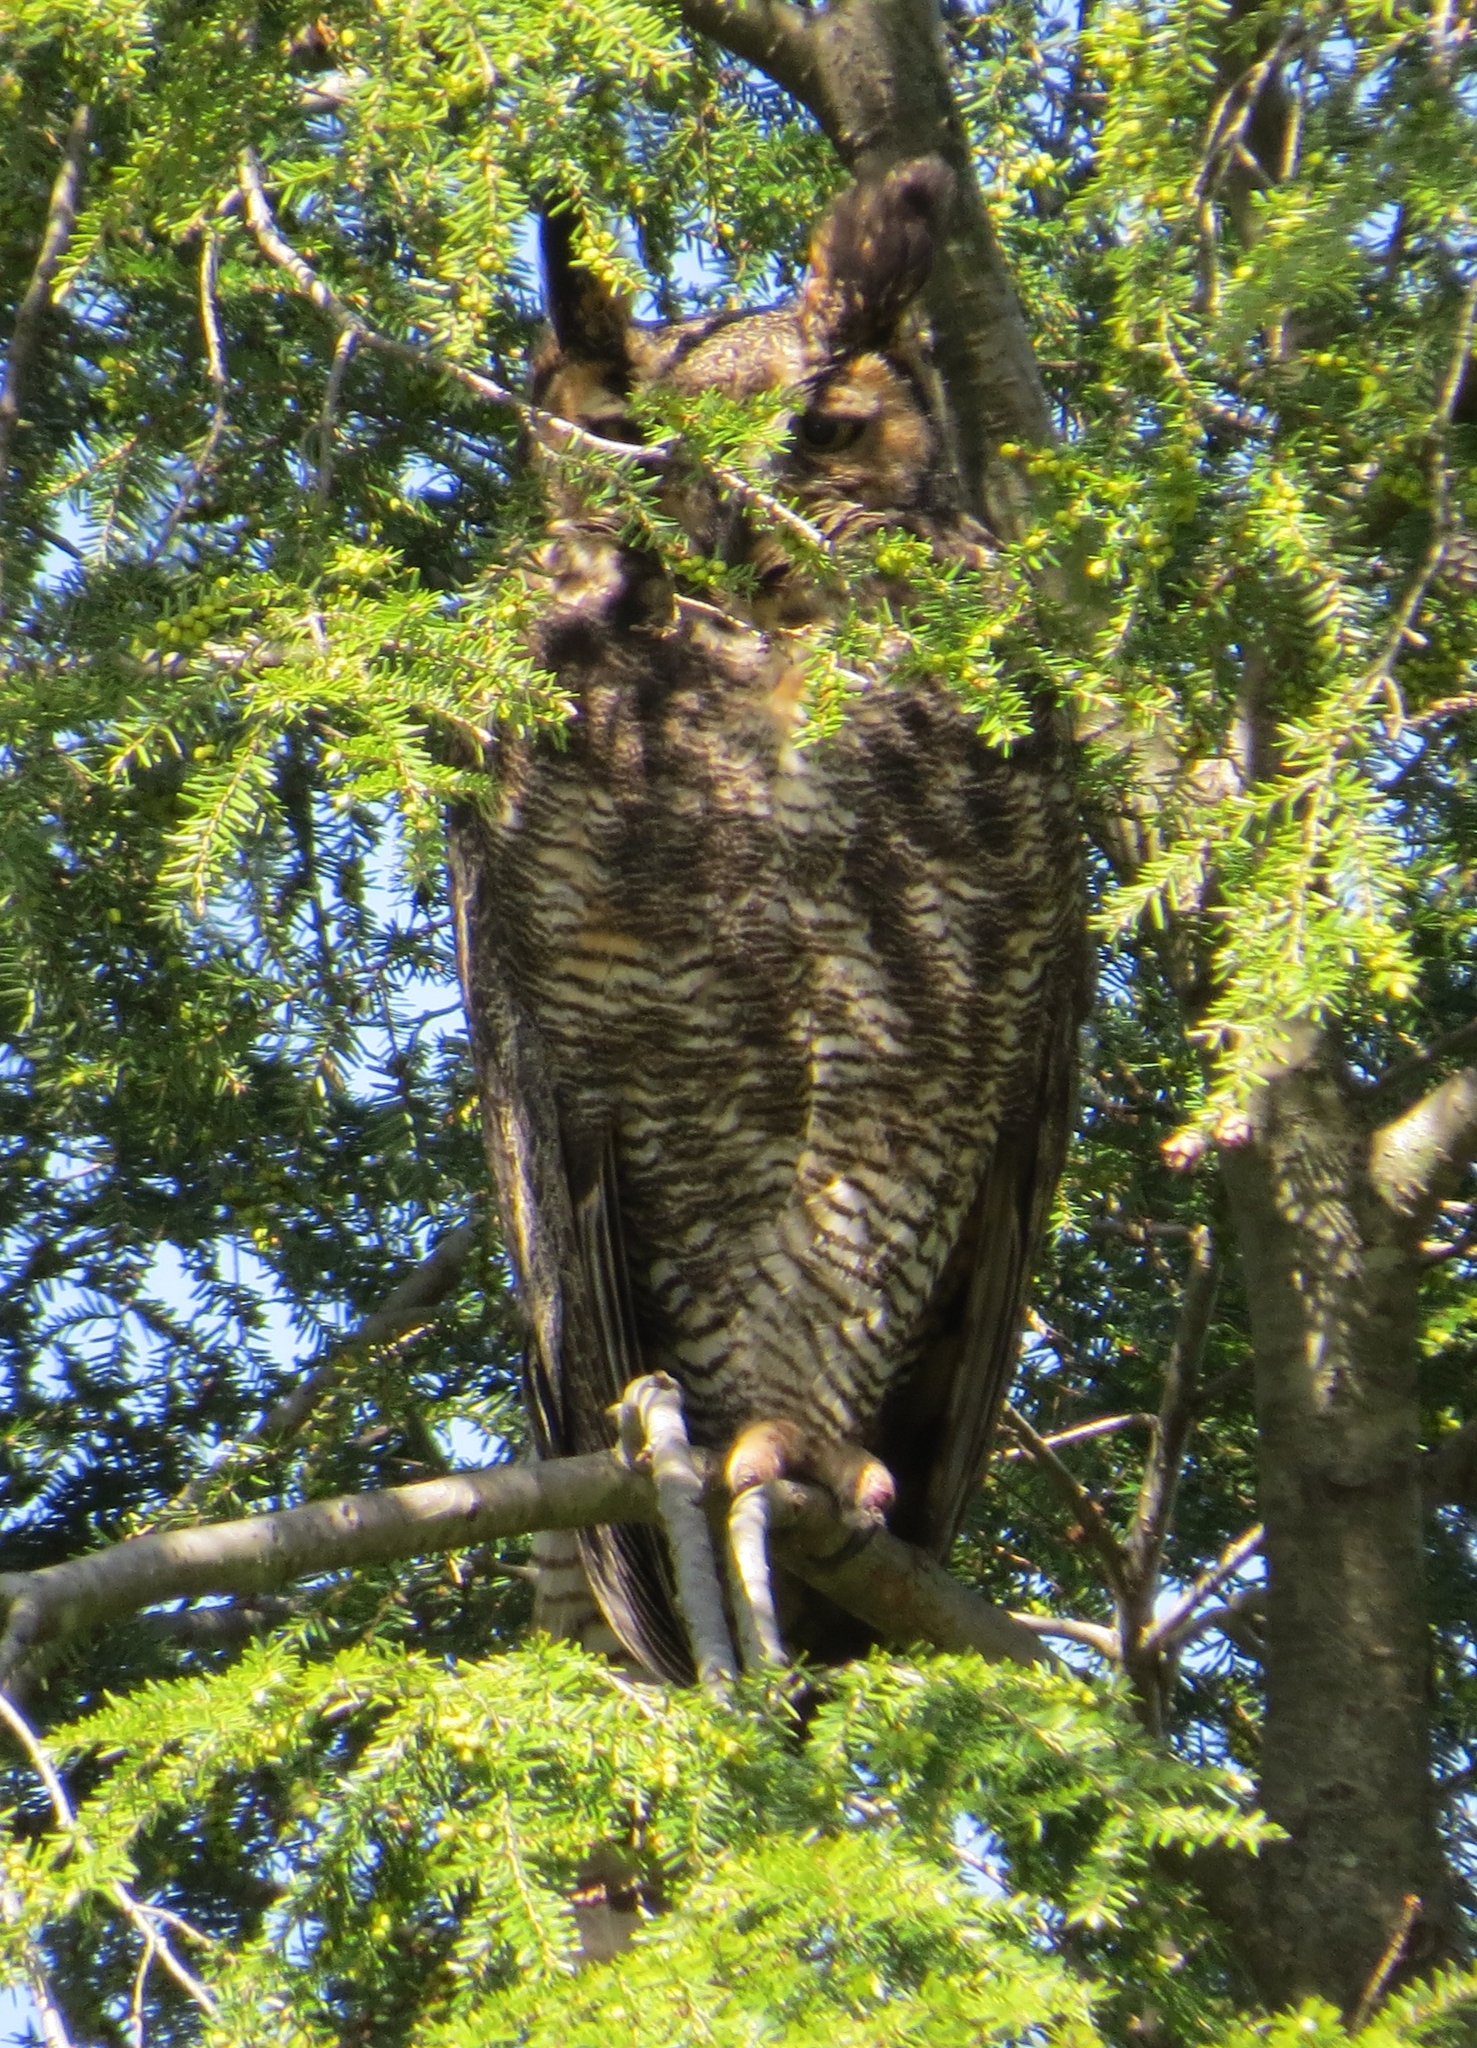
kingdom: Animalia
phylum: Chordata
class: Aves
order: Strigiformes
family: Strigidae
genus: Bubo
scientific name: Bubo virginianus
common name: Great horned owl
